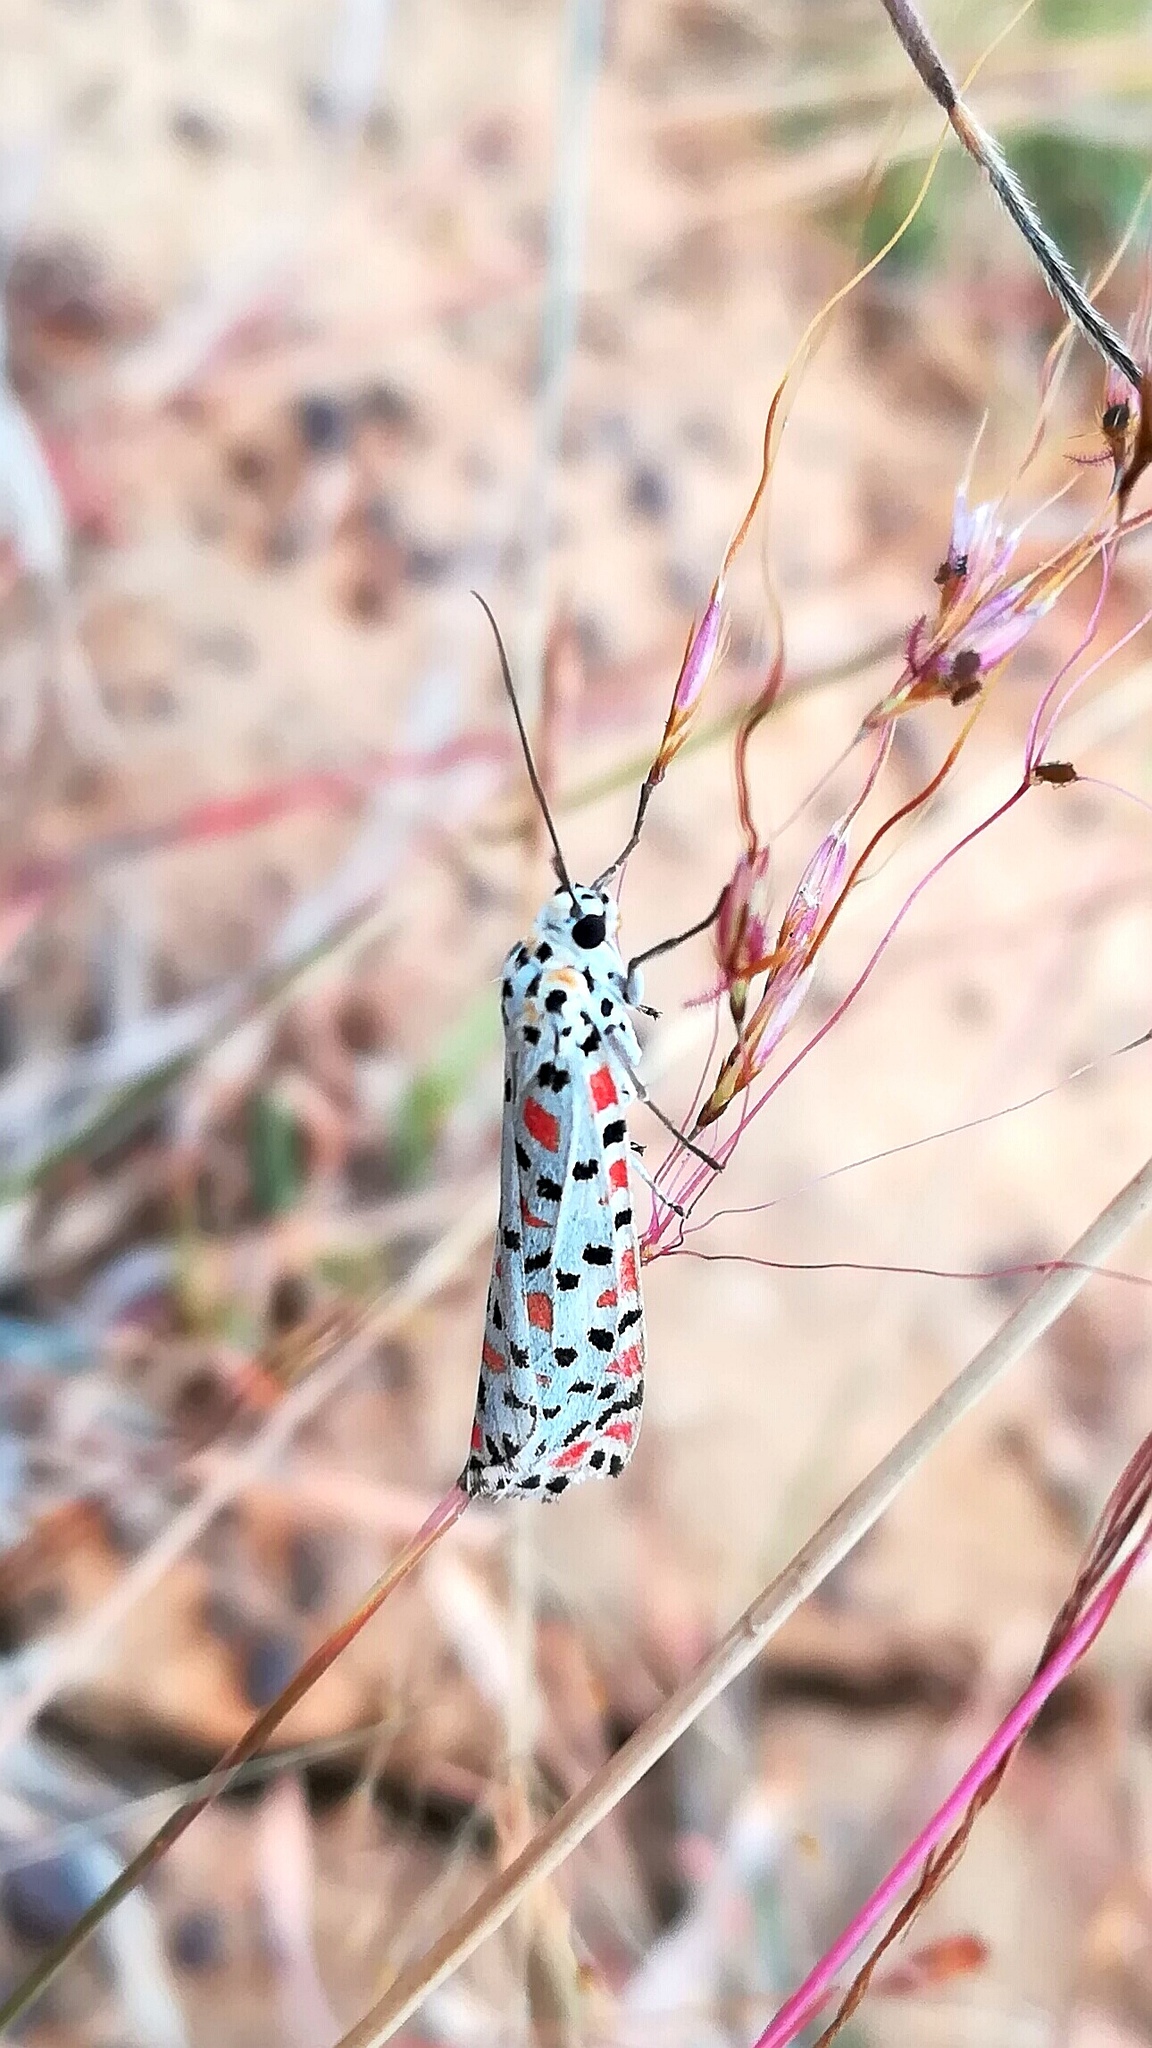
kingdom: Animalia
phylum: Arthropoda
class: Insecta
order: Lepidoptera
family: Erebidae
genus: Utetheisa
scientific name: Utetheisa lotrix
